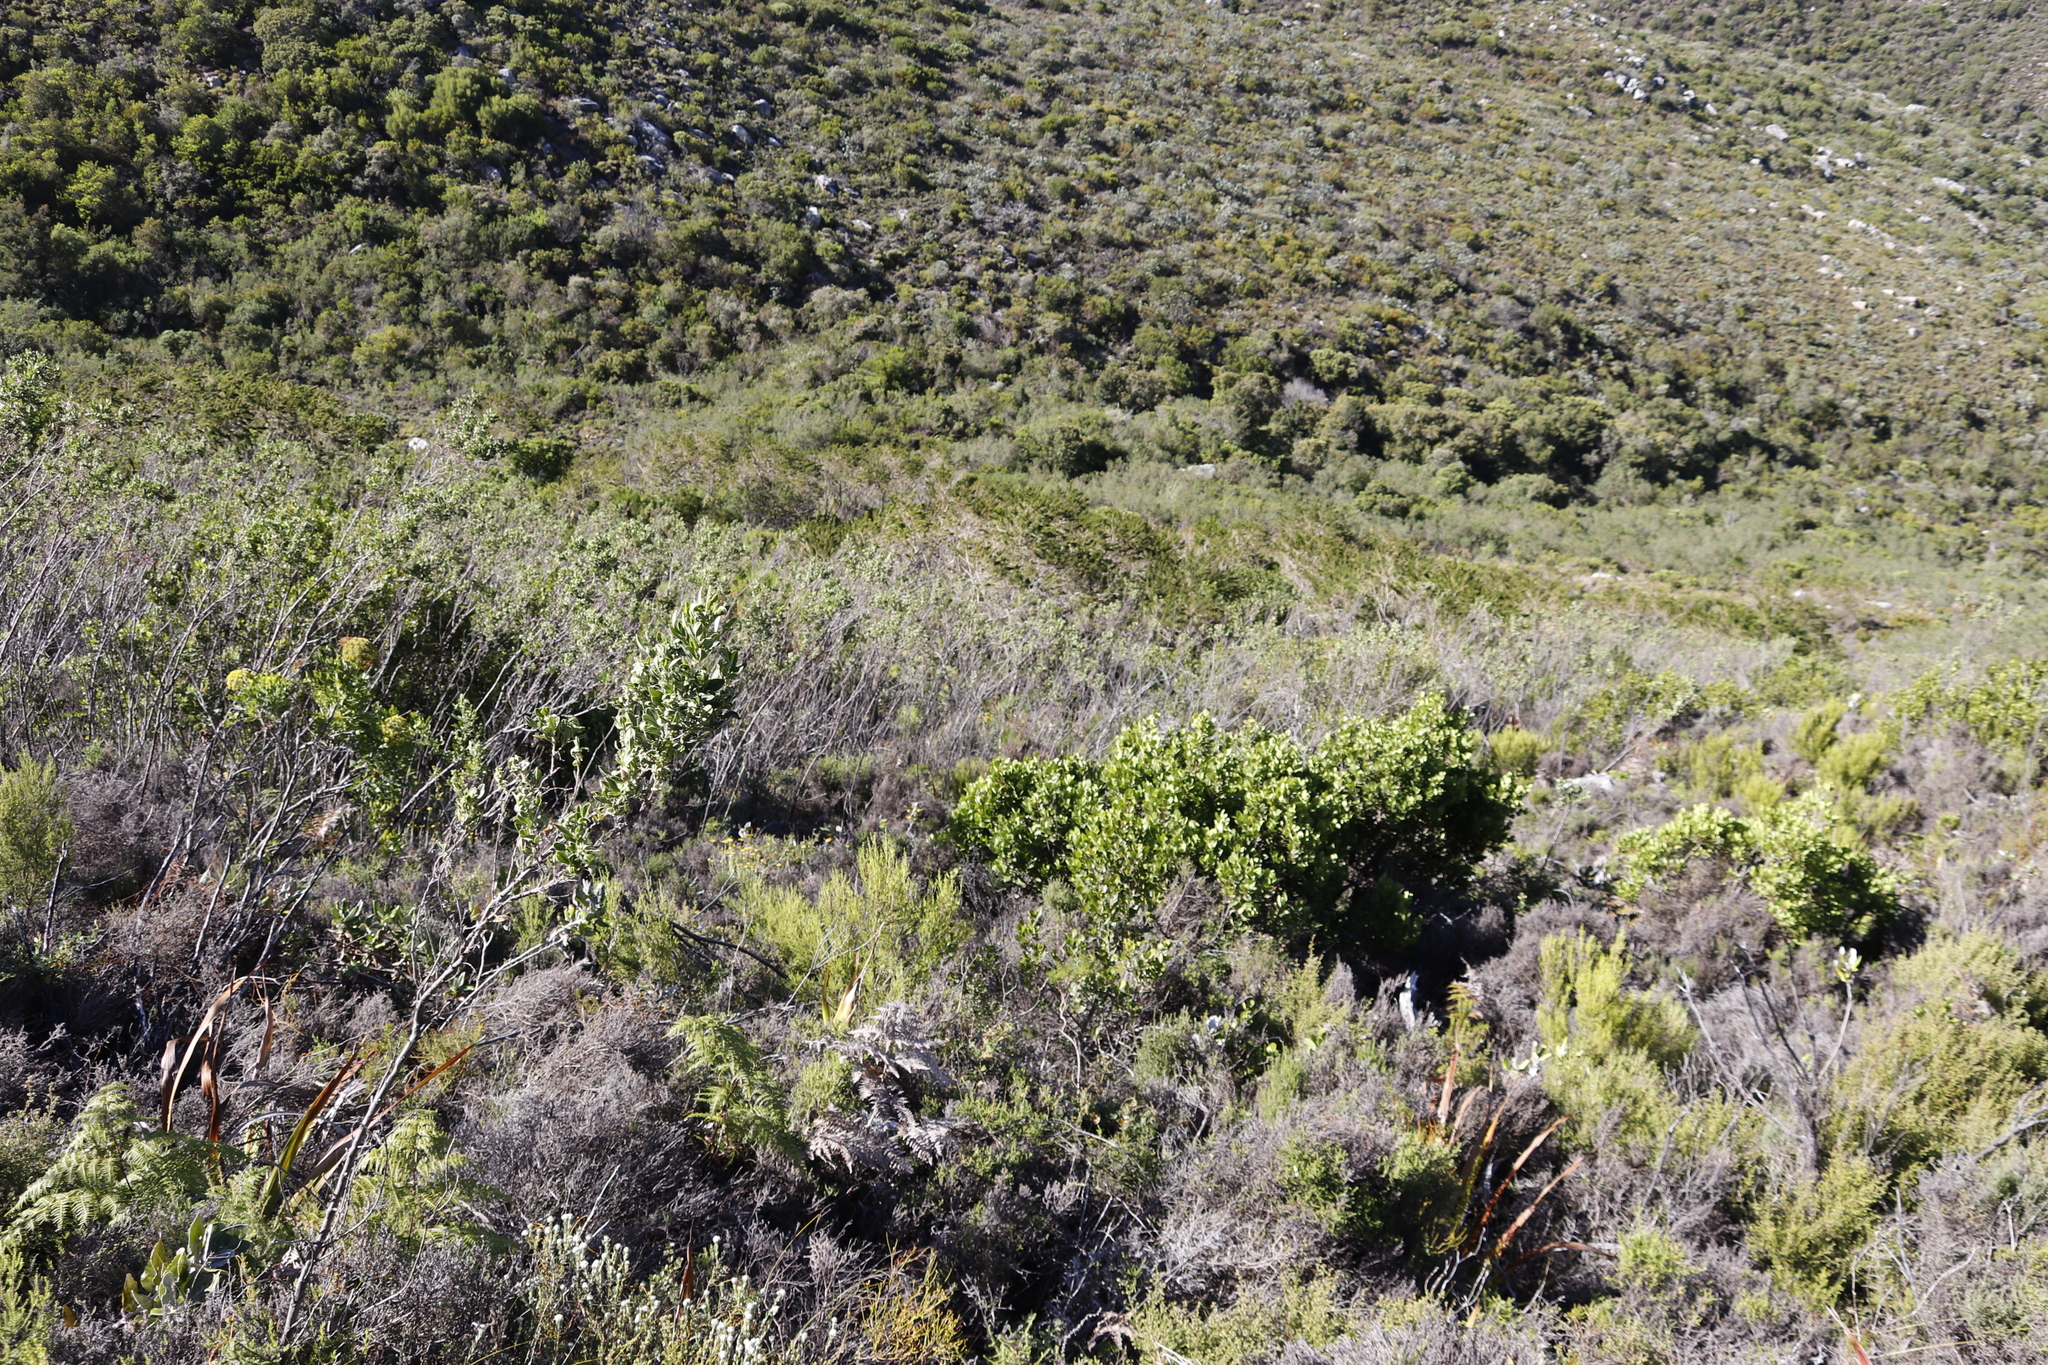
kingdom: Plantae
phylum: Tracheophyta
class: Magnoliopsida
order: Fabales
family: Fabaceae
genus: Indigofera
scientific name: Indigofera cytisoides
